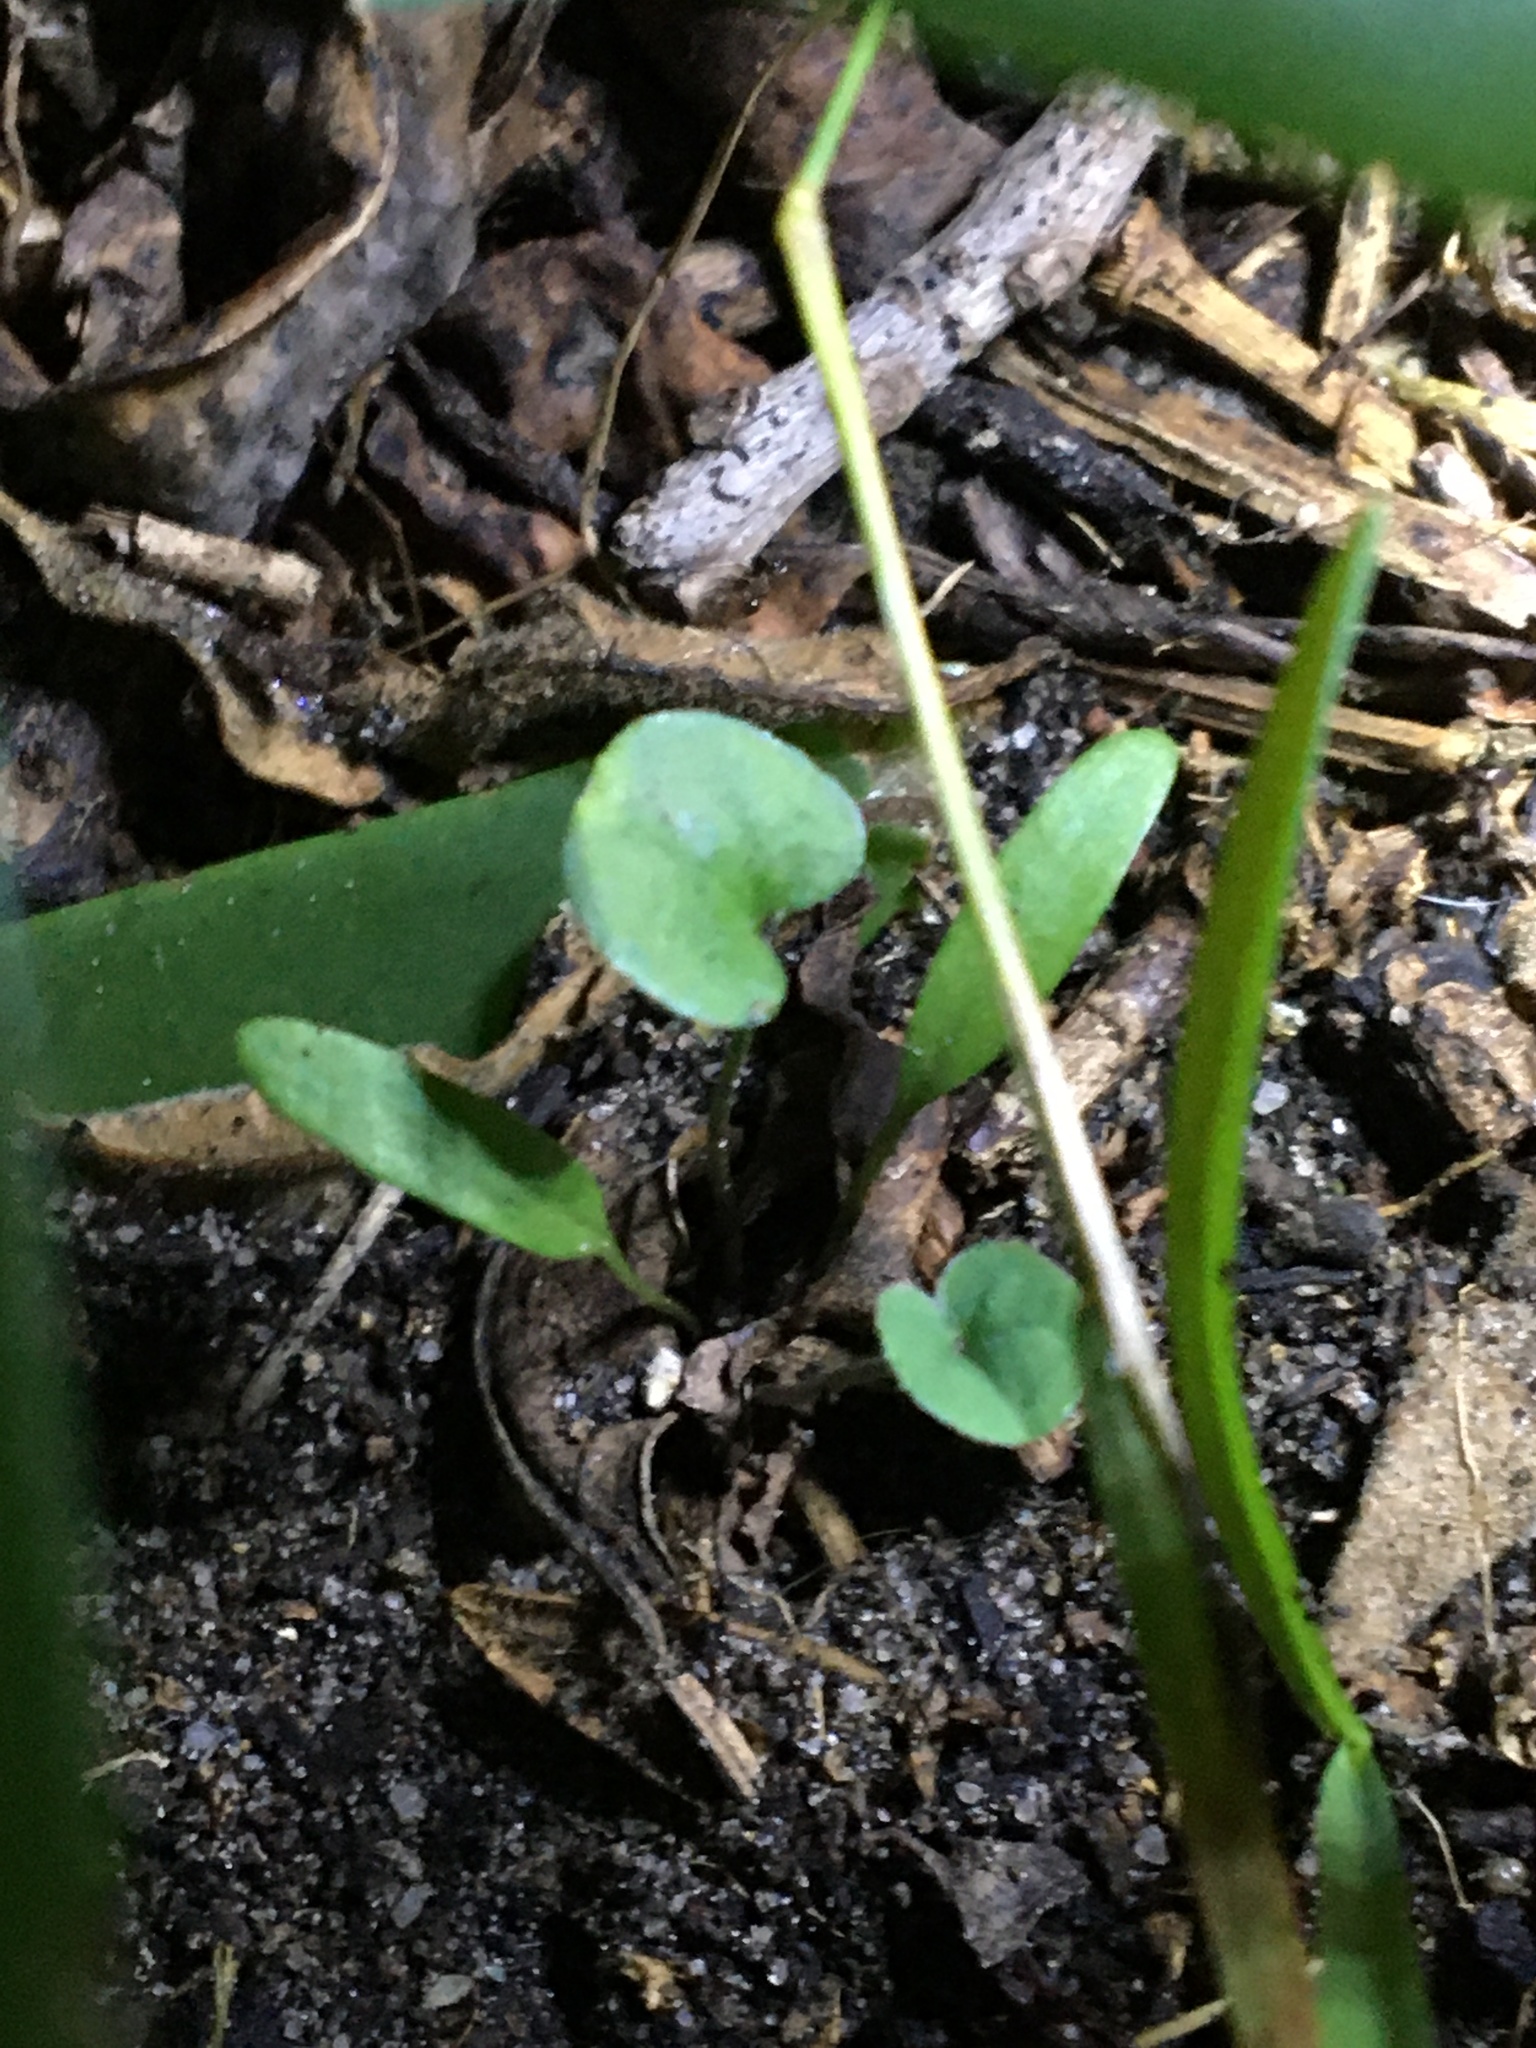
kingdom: Plantae
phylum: Tracheophyta
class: Magnoliopsida
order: Solanales
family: Convolvulaceae
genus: Dichondra
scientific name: Dichondra micrantha
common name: Kidneyweed
